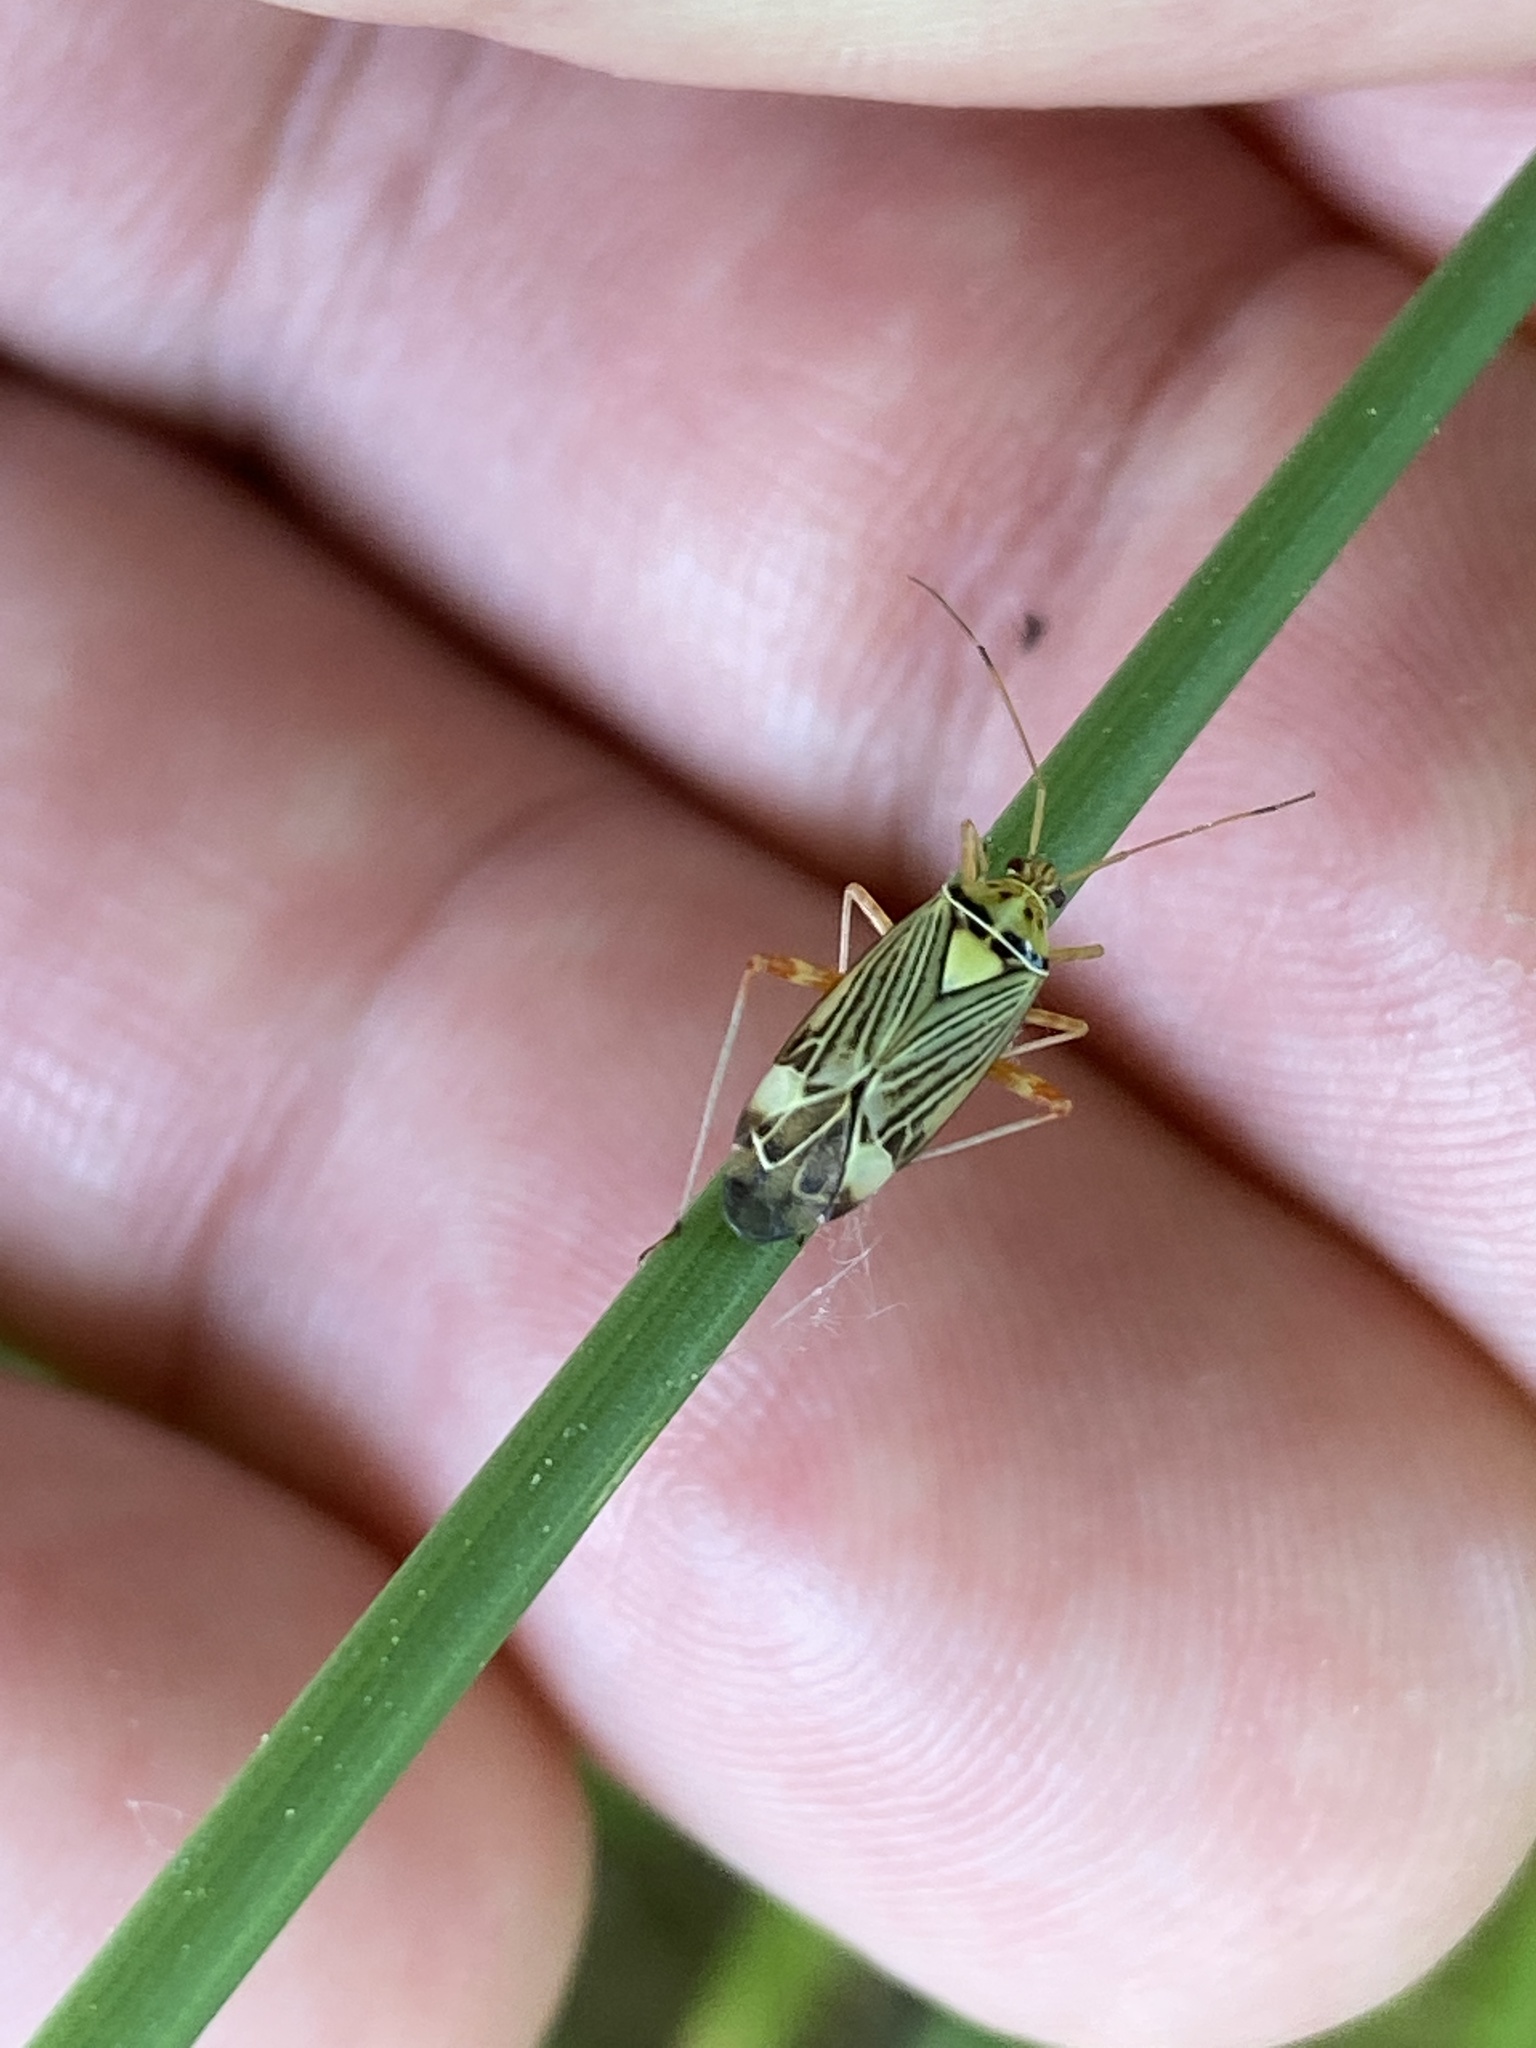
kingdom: Animalia
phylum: Arthropoda
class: Insecta
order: Hemiptera
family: Miridae
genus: Rhabdomiris
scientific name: Rhabdomiris striatellus
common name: Plant bug
